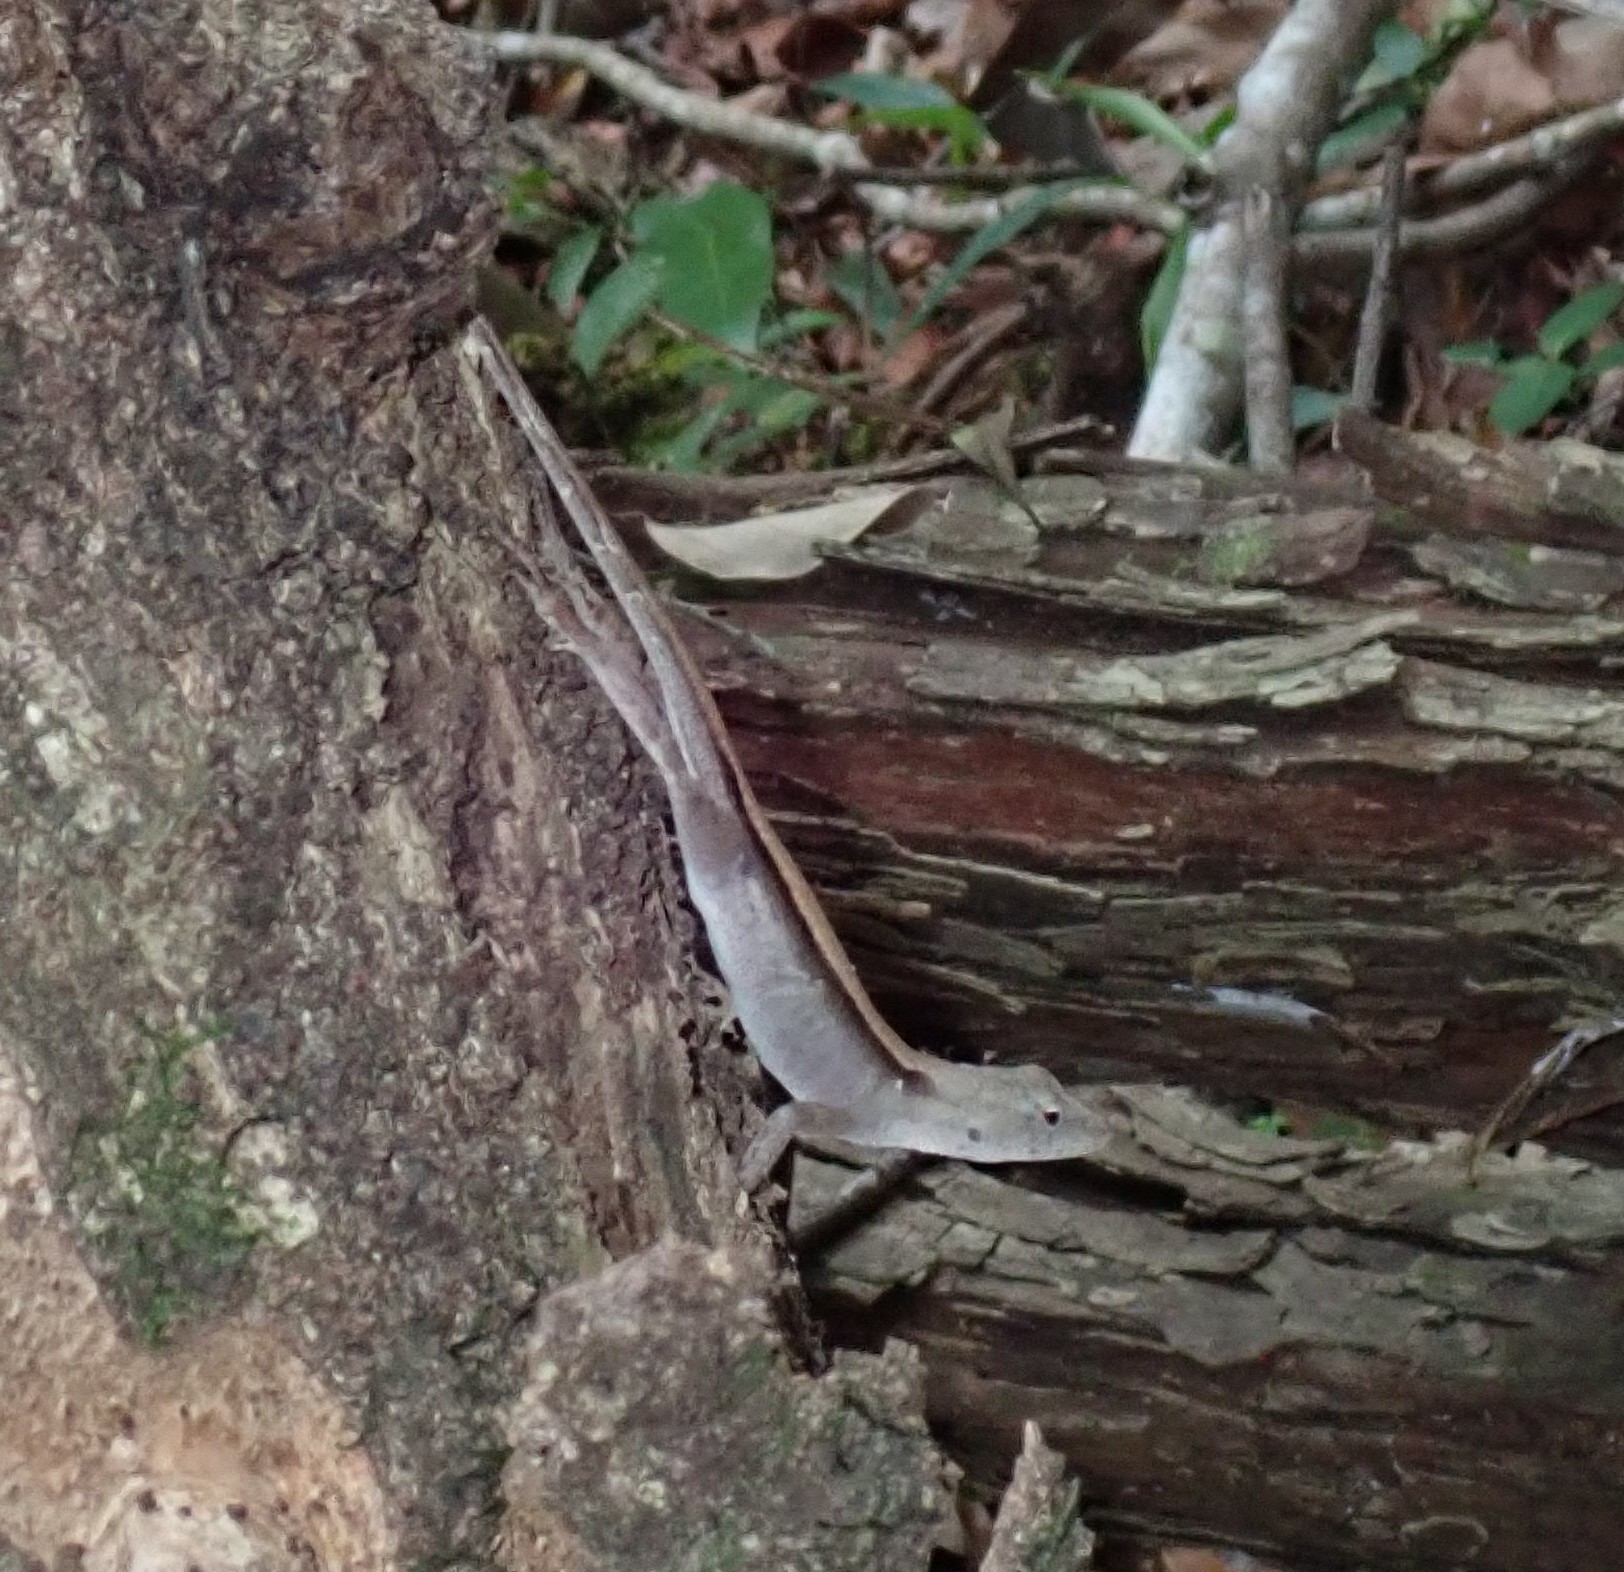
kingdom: Animalia
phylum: Chordata
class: Squamata
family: Dactyloidae
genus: Anolis
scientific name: Anolis tropidonotus
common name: Greater scaly anole
